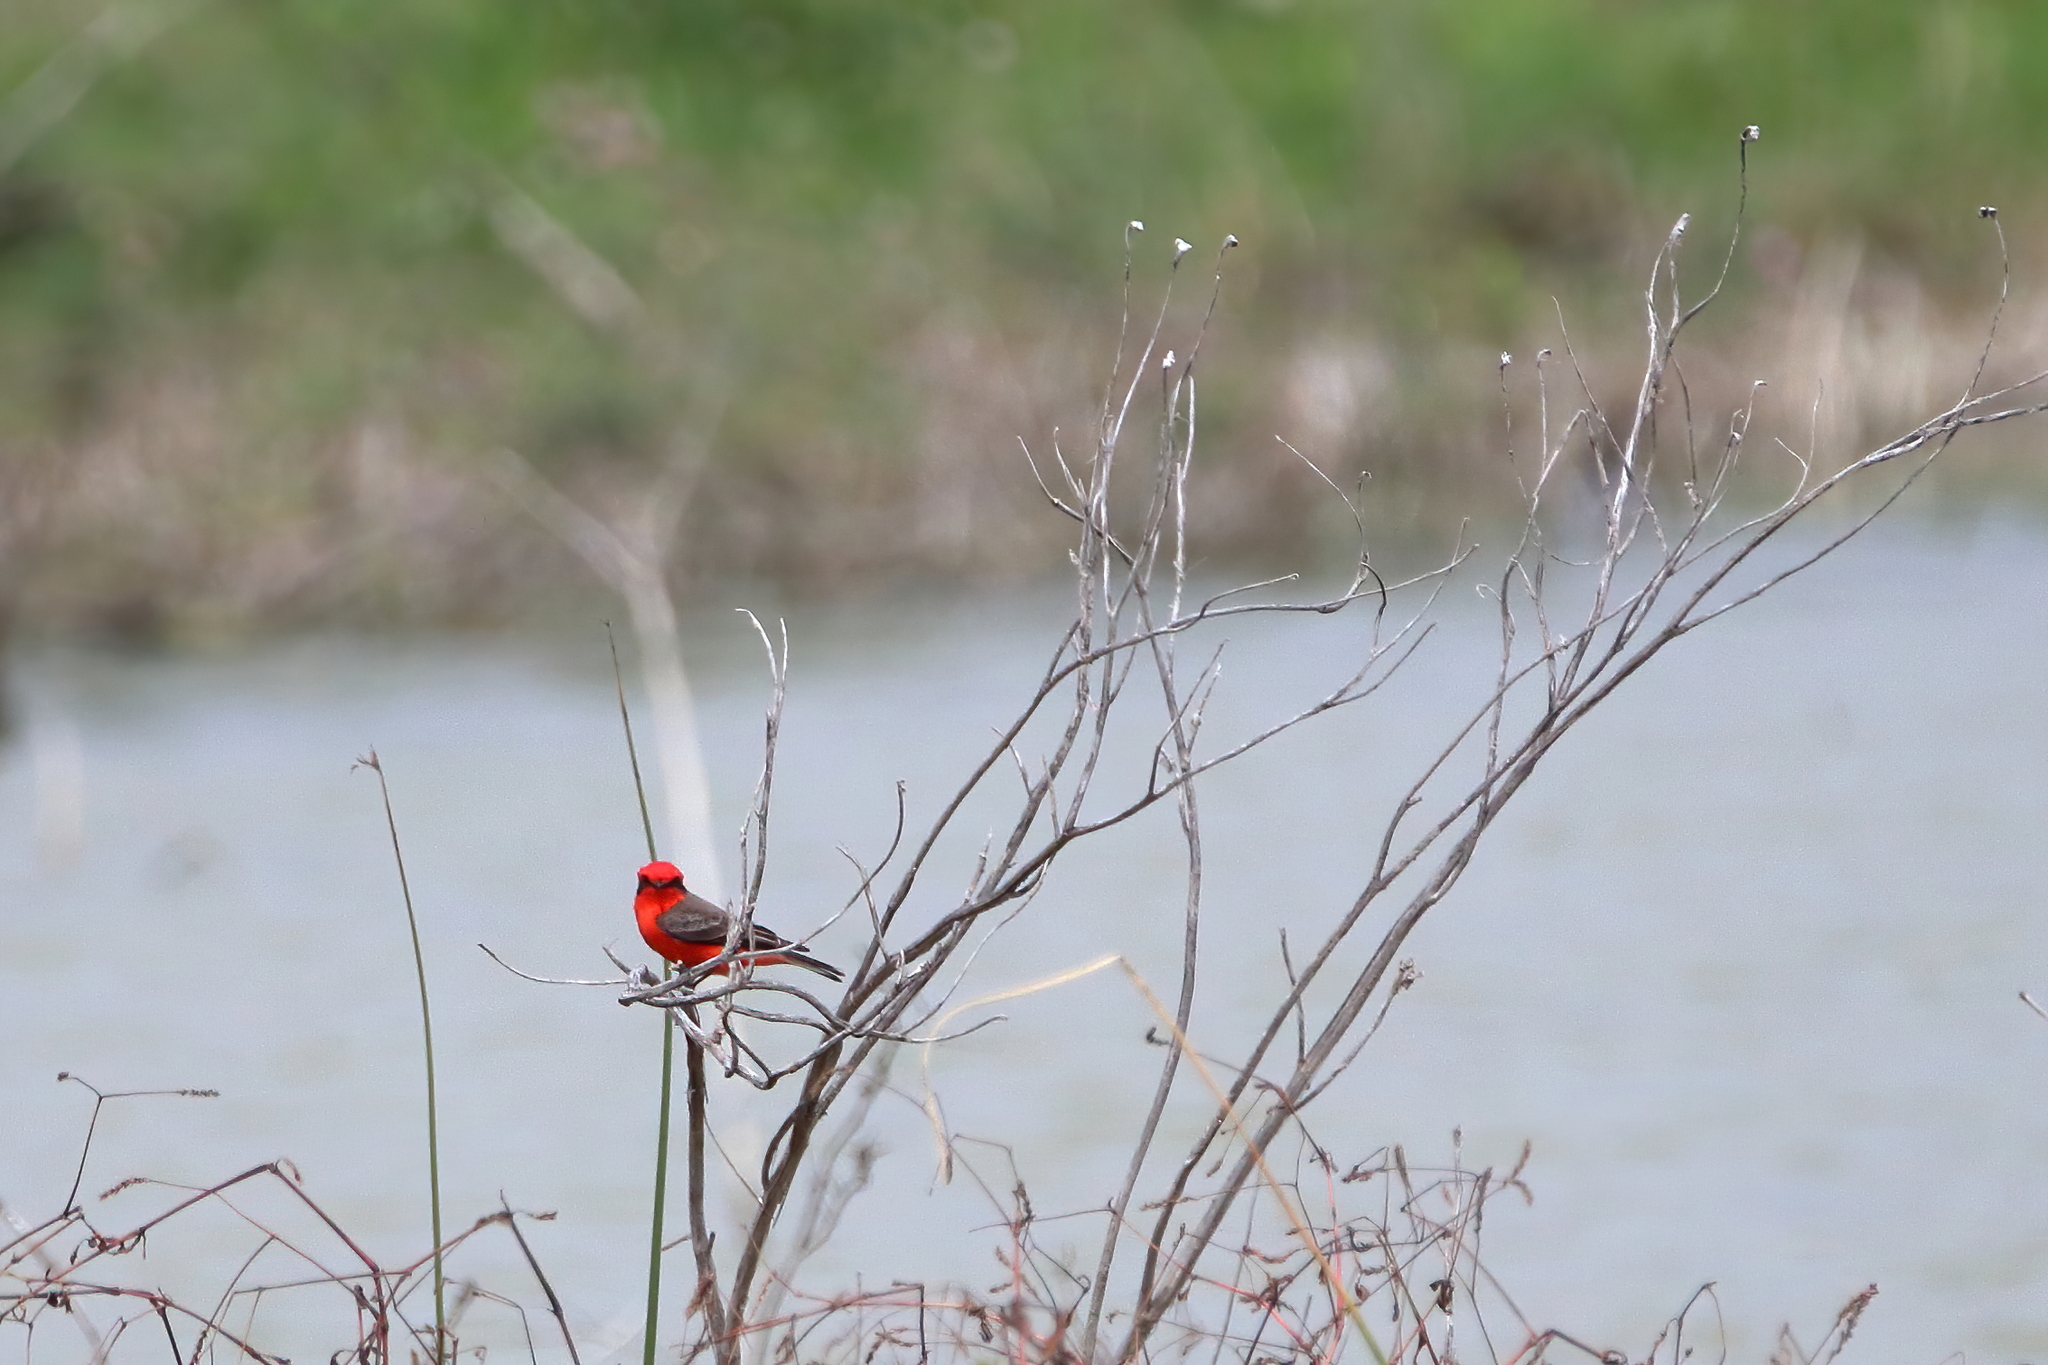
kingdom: Animalia
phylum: Chordata
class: Aves
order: Passeriformes
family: Tyrannidae
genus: Pyrocephalus
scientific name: Pyrocephalus rubinus
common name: Vermilion flycatcher
